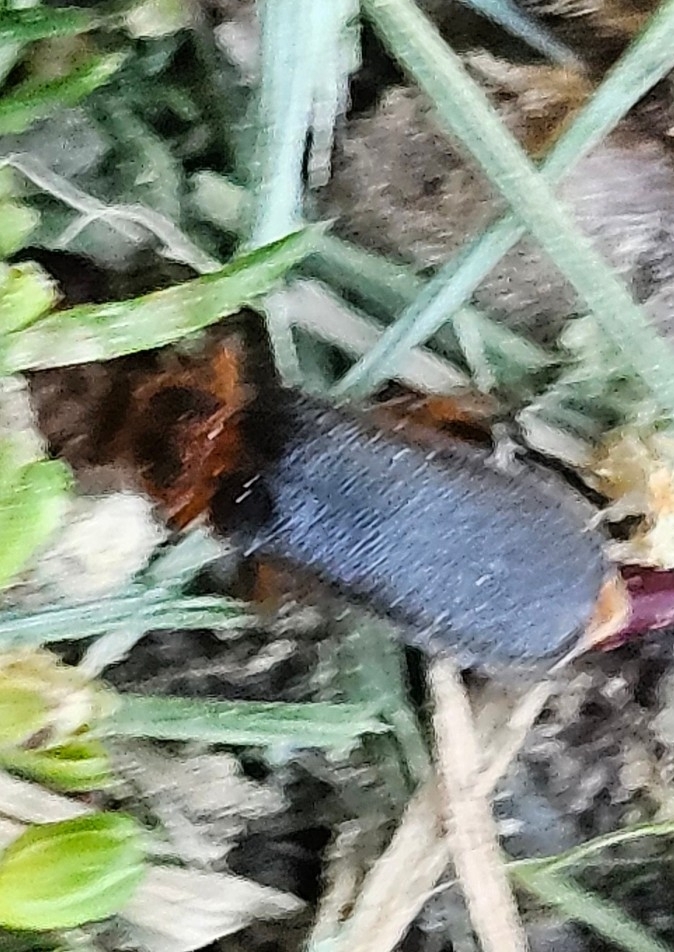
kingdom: Animalia
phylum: Arthropoda
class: Insecta
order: Coleoptera
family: Cantharidae
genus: Atalantycha
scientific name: Atalantycha bilineata
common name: Two-lined leatherwing
